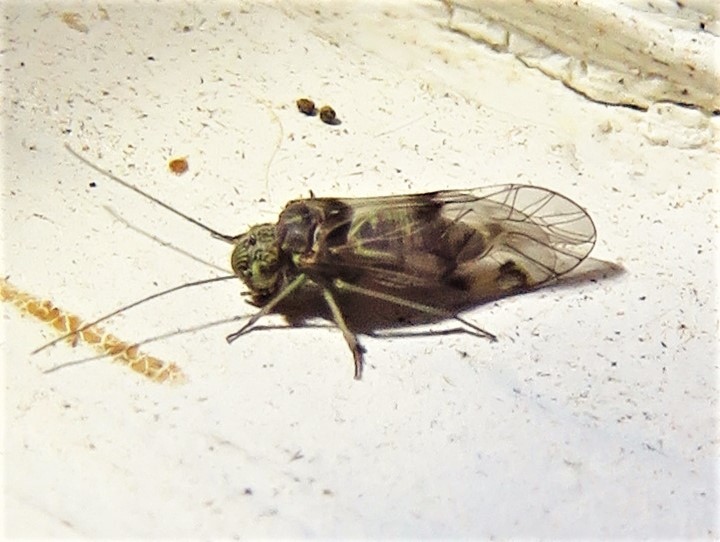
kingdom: Animalia
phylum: Arthropoda
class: Insecta
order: Psocodea
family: Psocidae
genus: Indiopsocus
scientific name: Indiopsocus bisignatus
